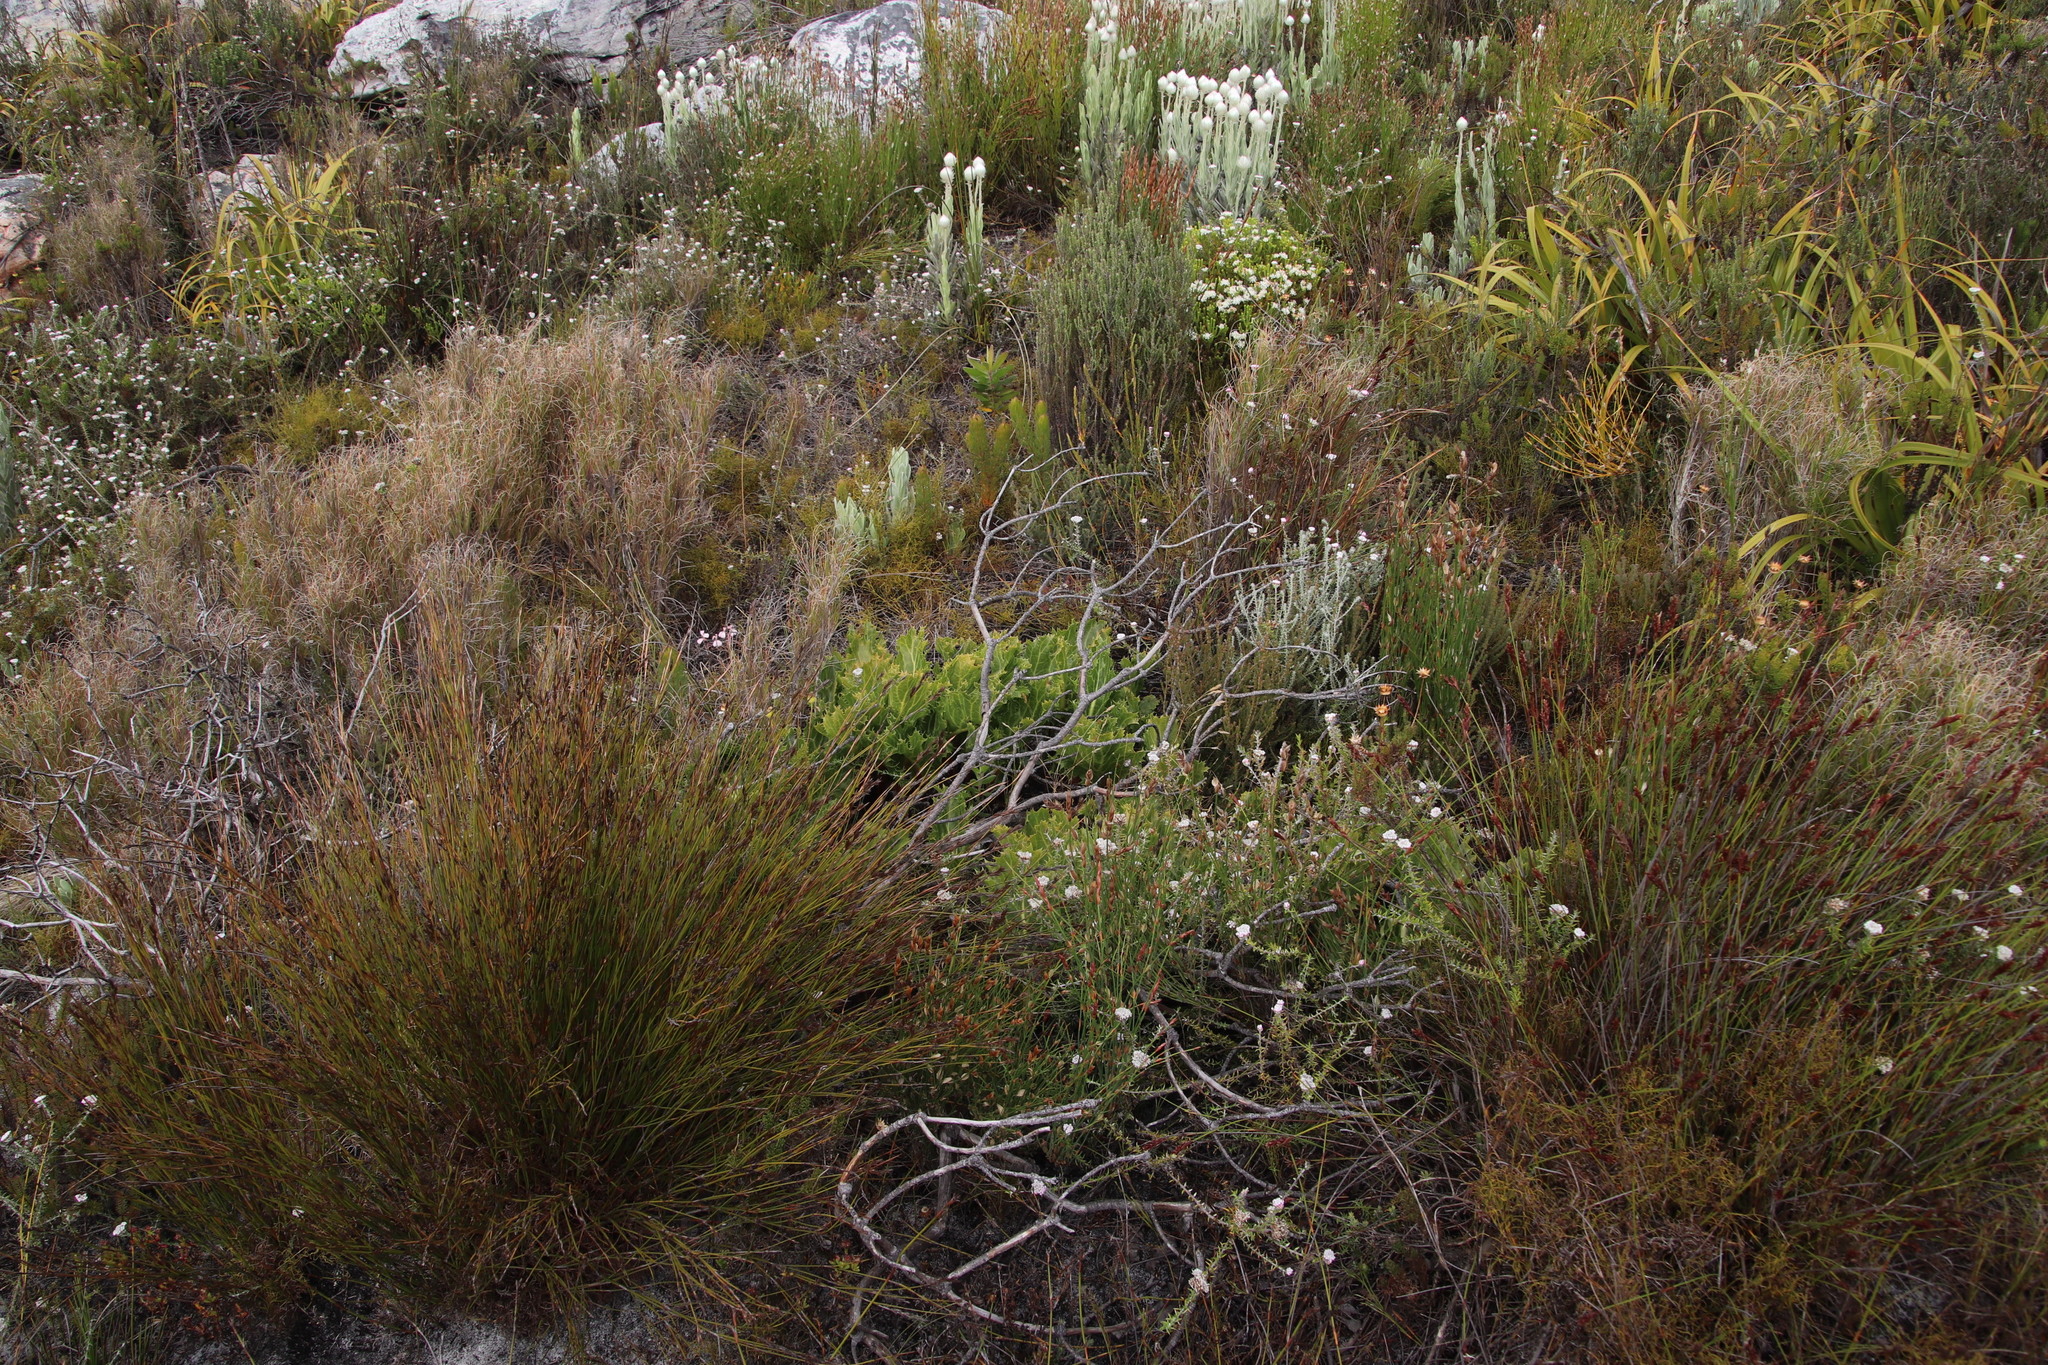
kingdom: Plantae
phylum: Tracheophyta
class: Magnoliopsida
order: Apiales
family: Apiaceae
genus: Lichtensteinia
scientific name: Lichtensteinia lacera
